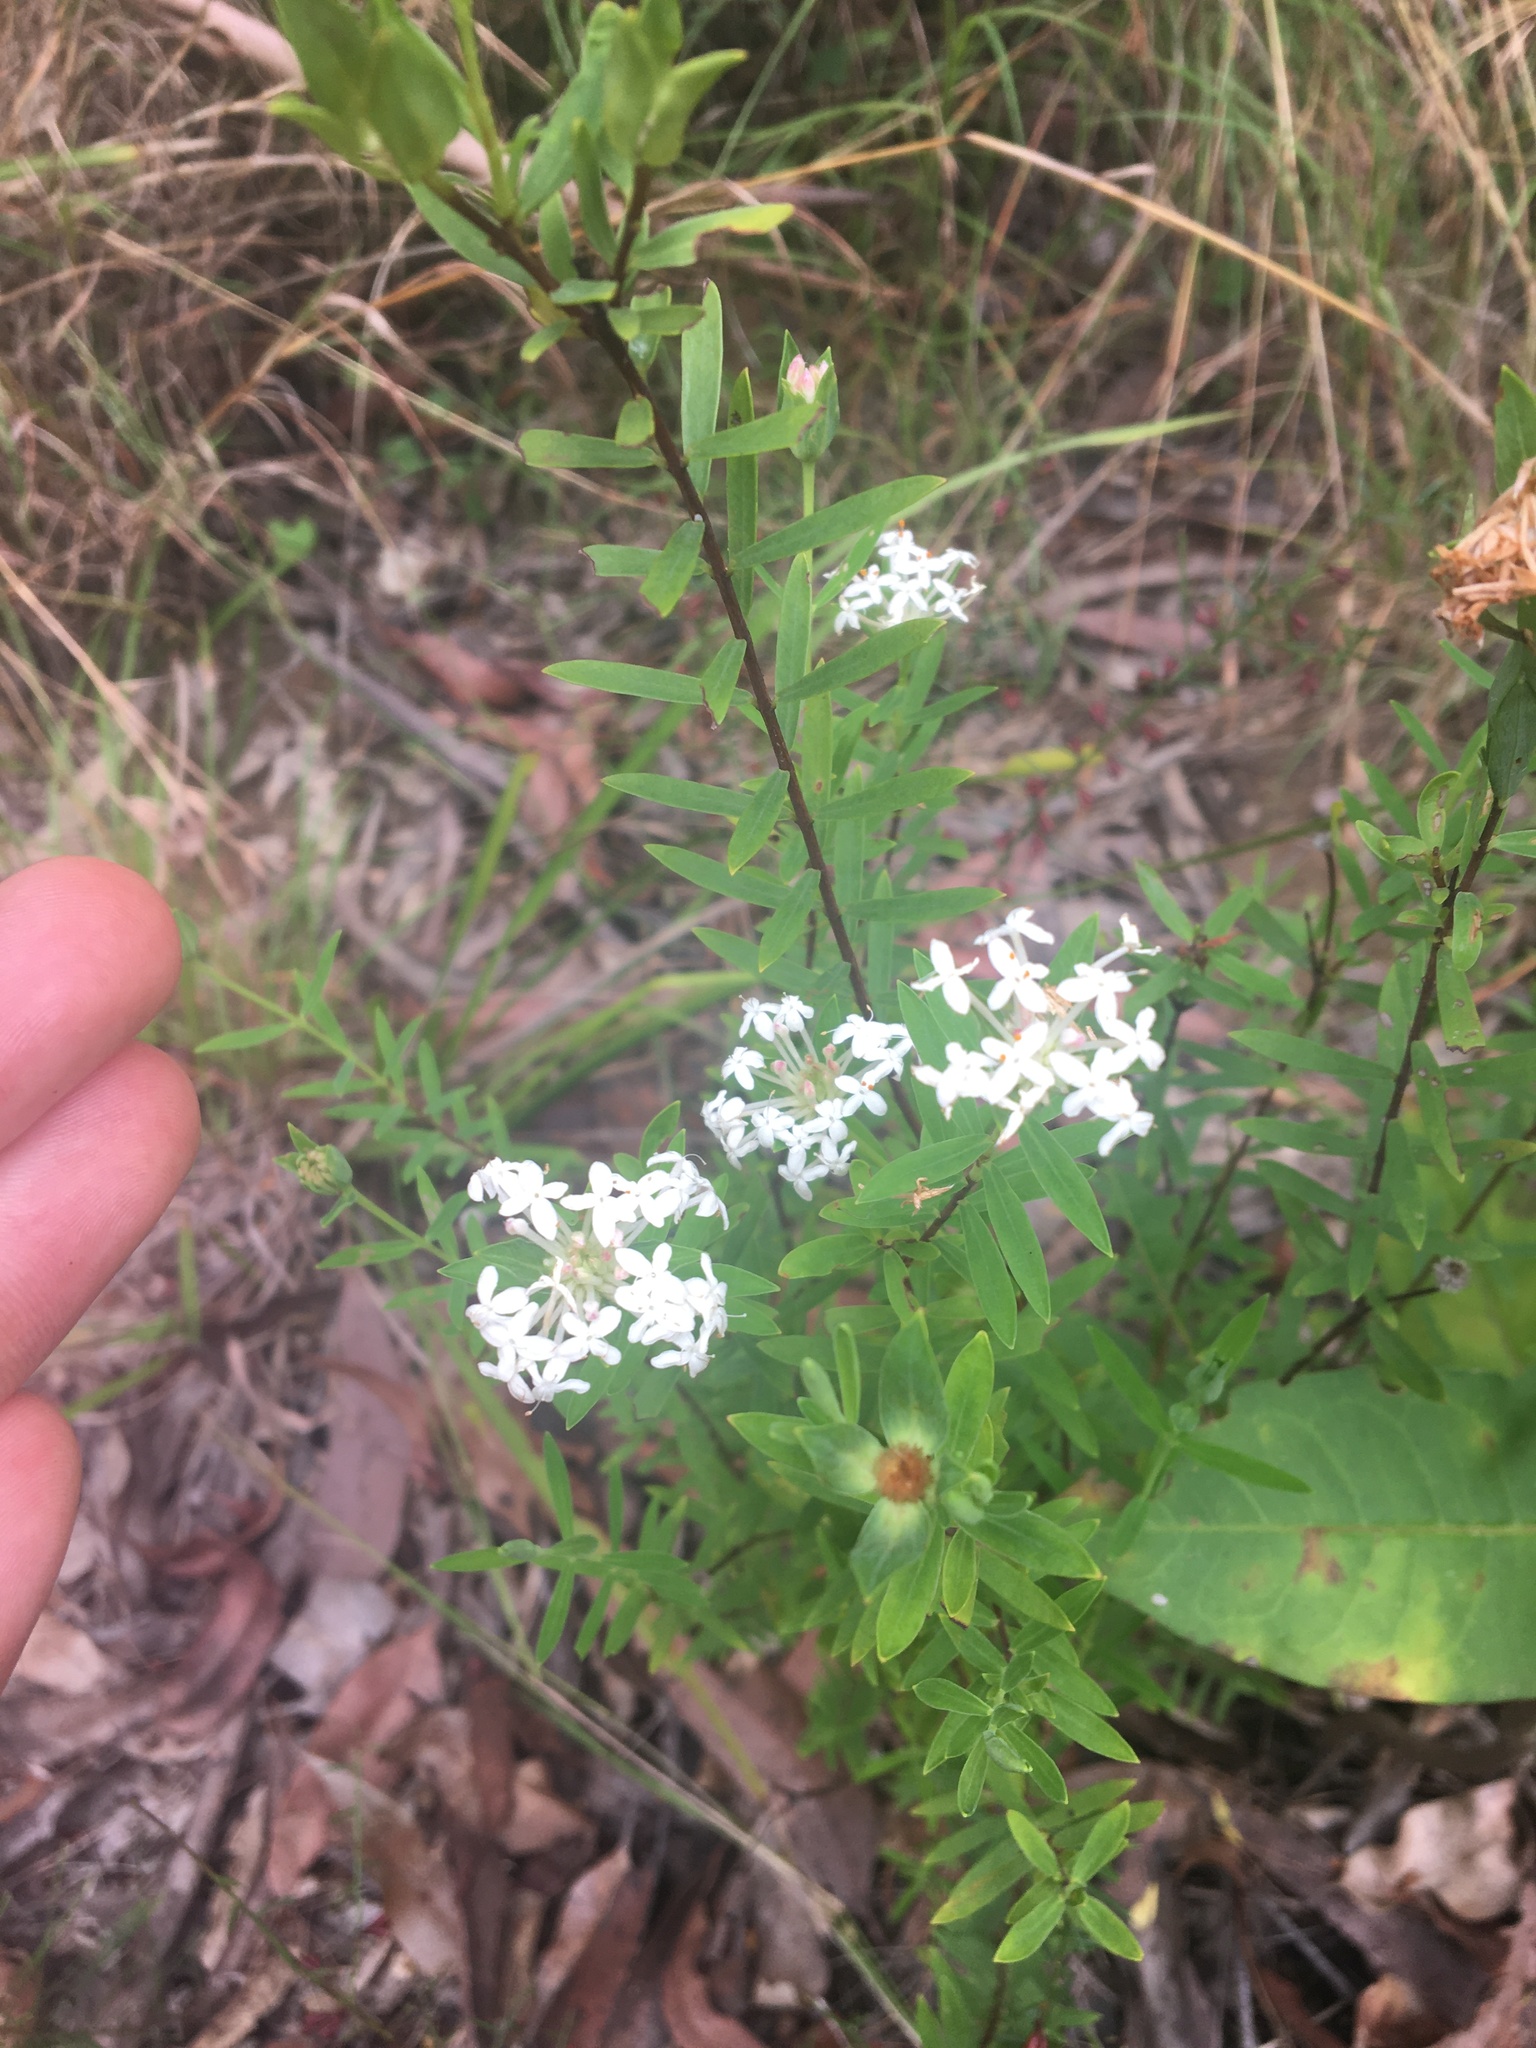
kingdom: Plantae
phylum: Tracheophyta
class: Magnoliopsida
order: Malvales
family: Thymelaeaceae
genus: Pimelea
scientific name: Pimelea linifolia
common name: Queen-of-the-bush
